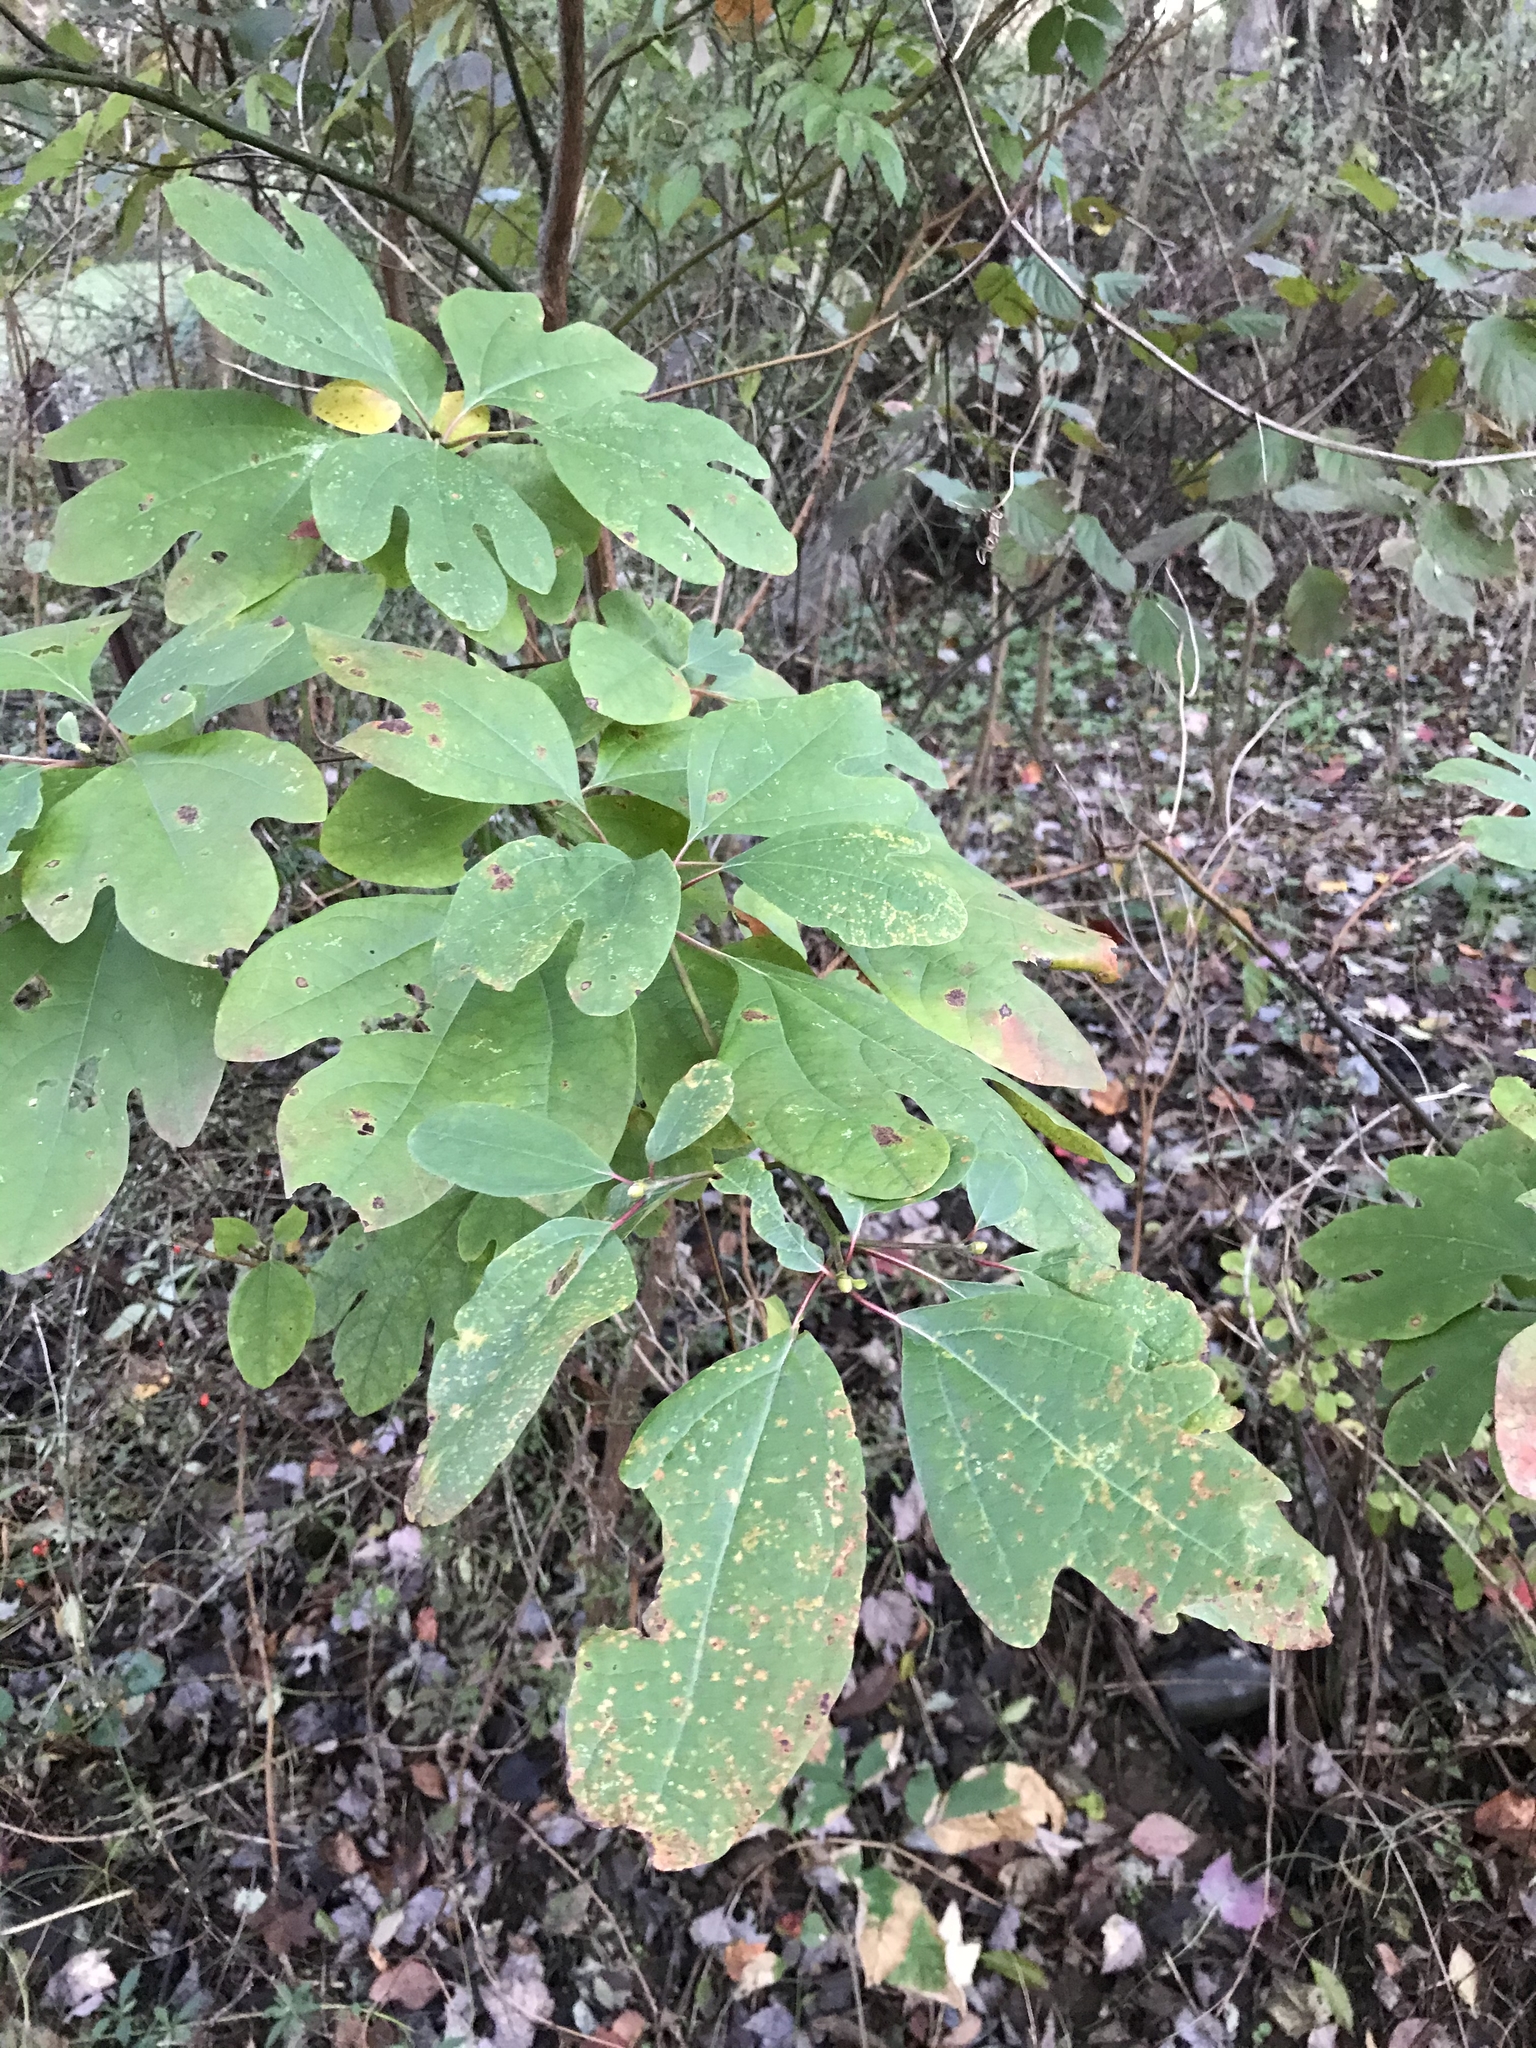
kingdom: Plantae
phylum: Tracheophyta
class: Magnoliopsida
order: Laurales
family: Lauraceae
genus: Sassafras
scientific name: Sassafras albidum
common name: Sassafras
